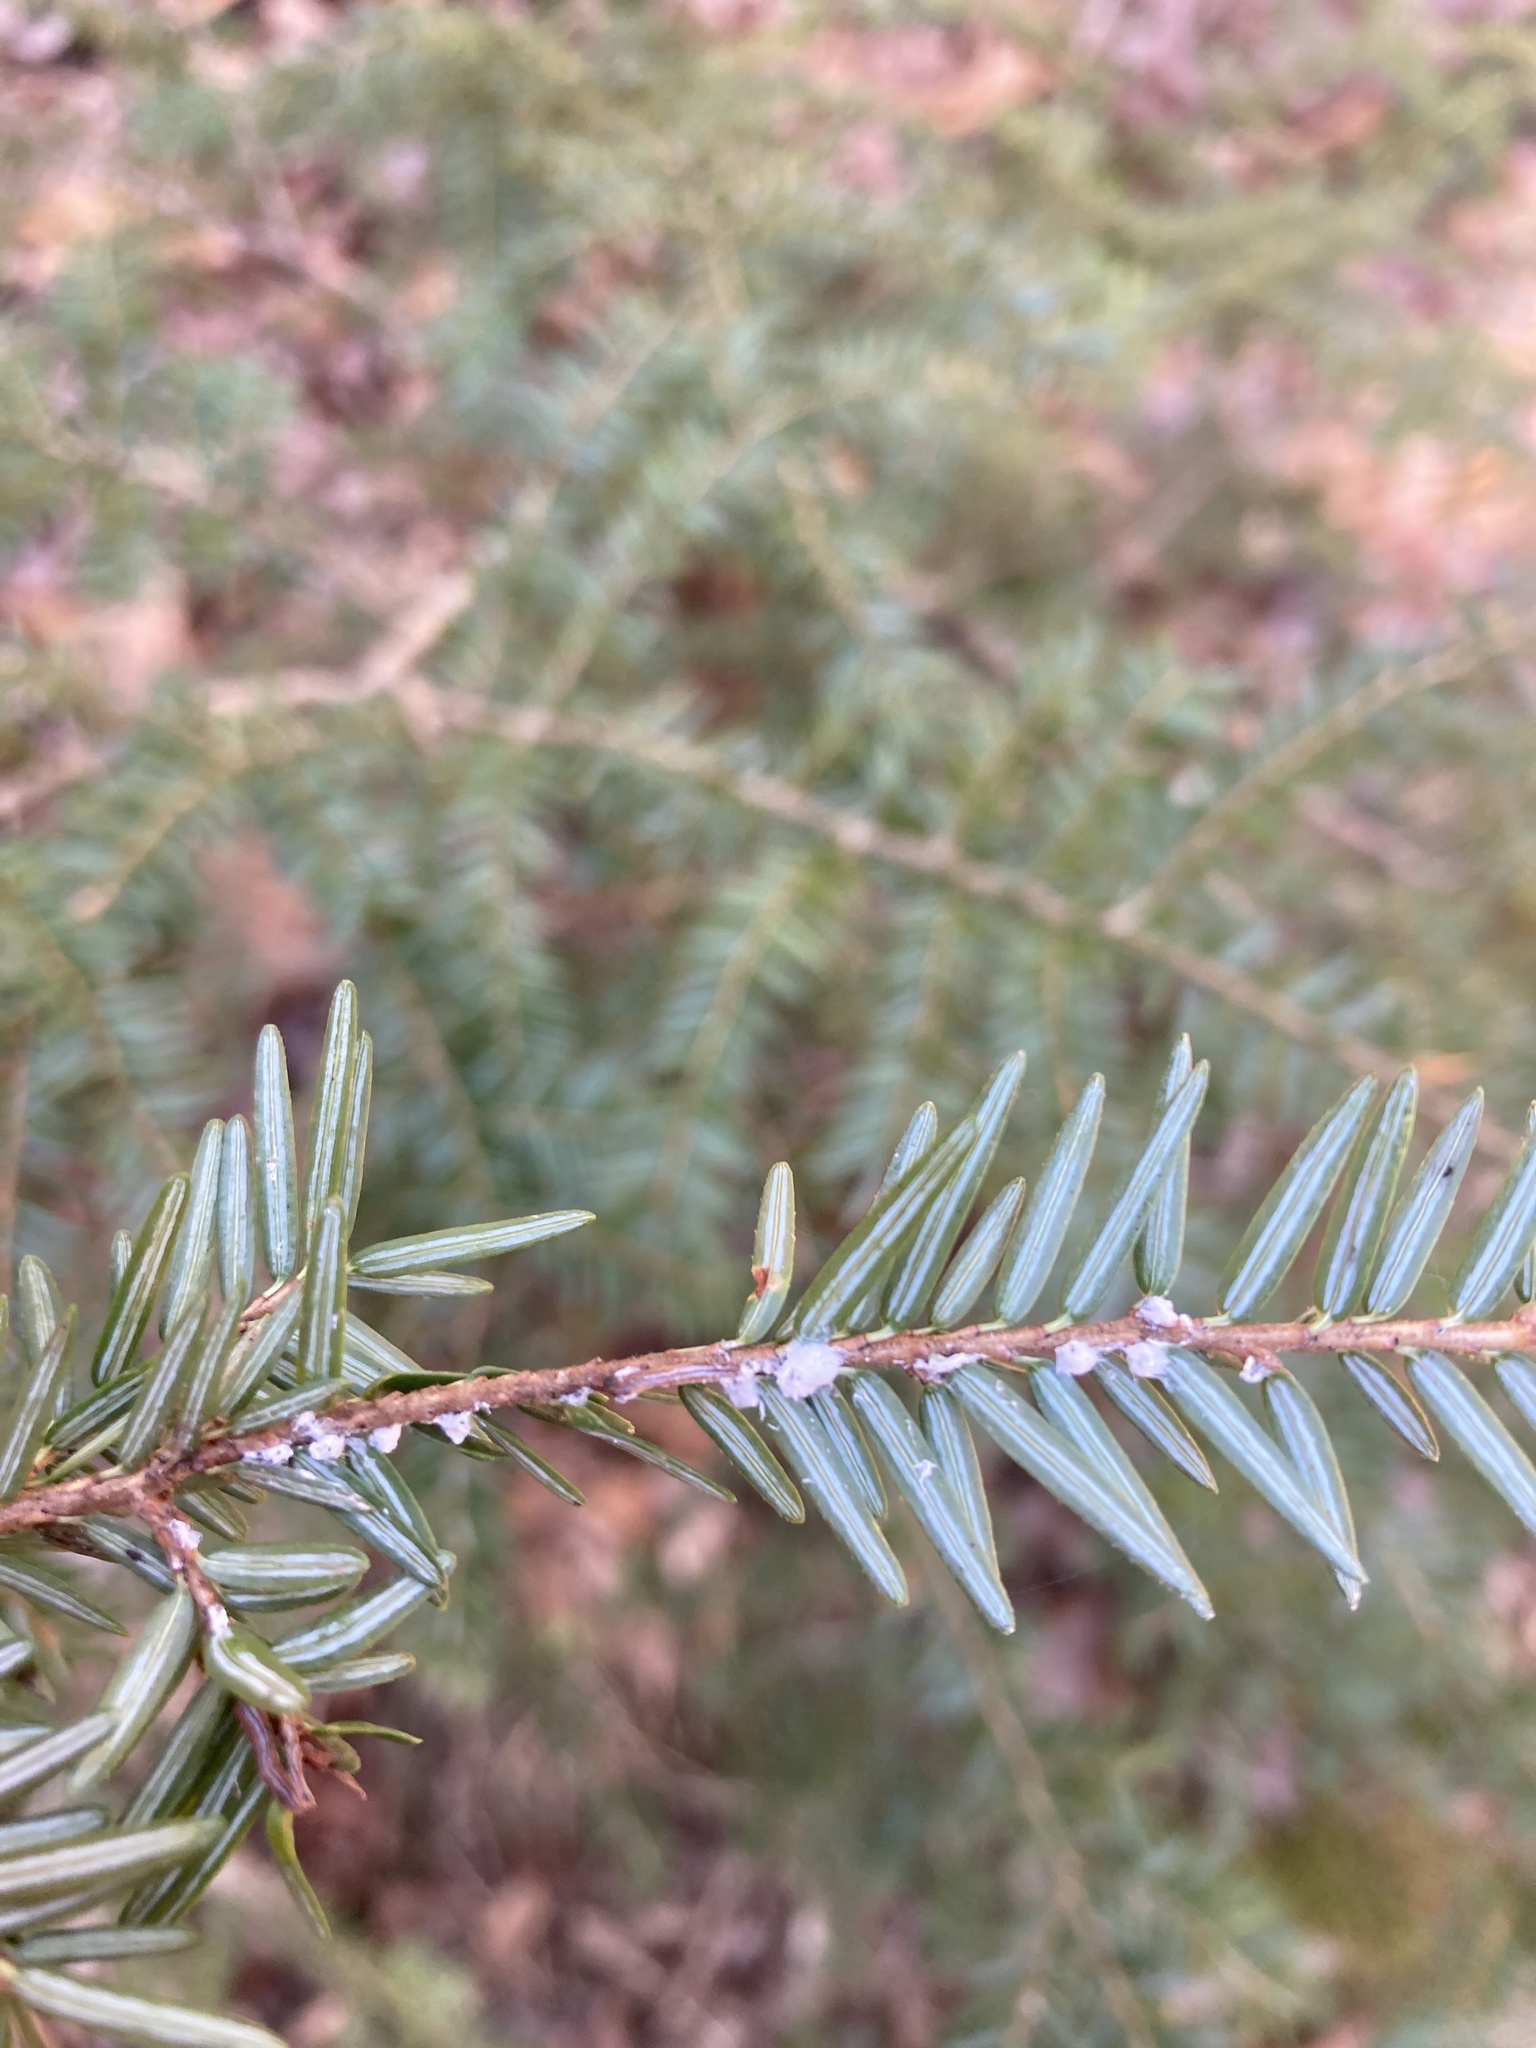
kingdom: Animalia
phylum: Arthropoda
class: Insecta
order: Hemiptera
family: Adelgidae
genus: Adelges
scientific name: Adelges tsugae
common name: Hemlock woolly adelgid
